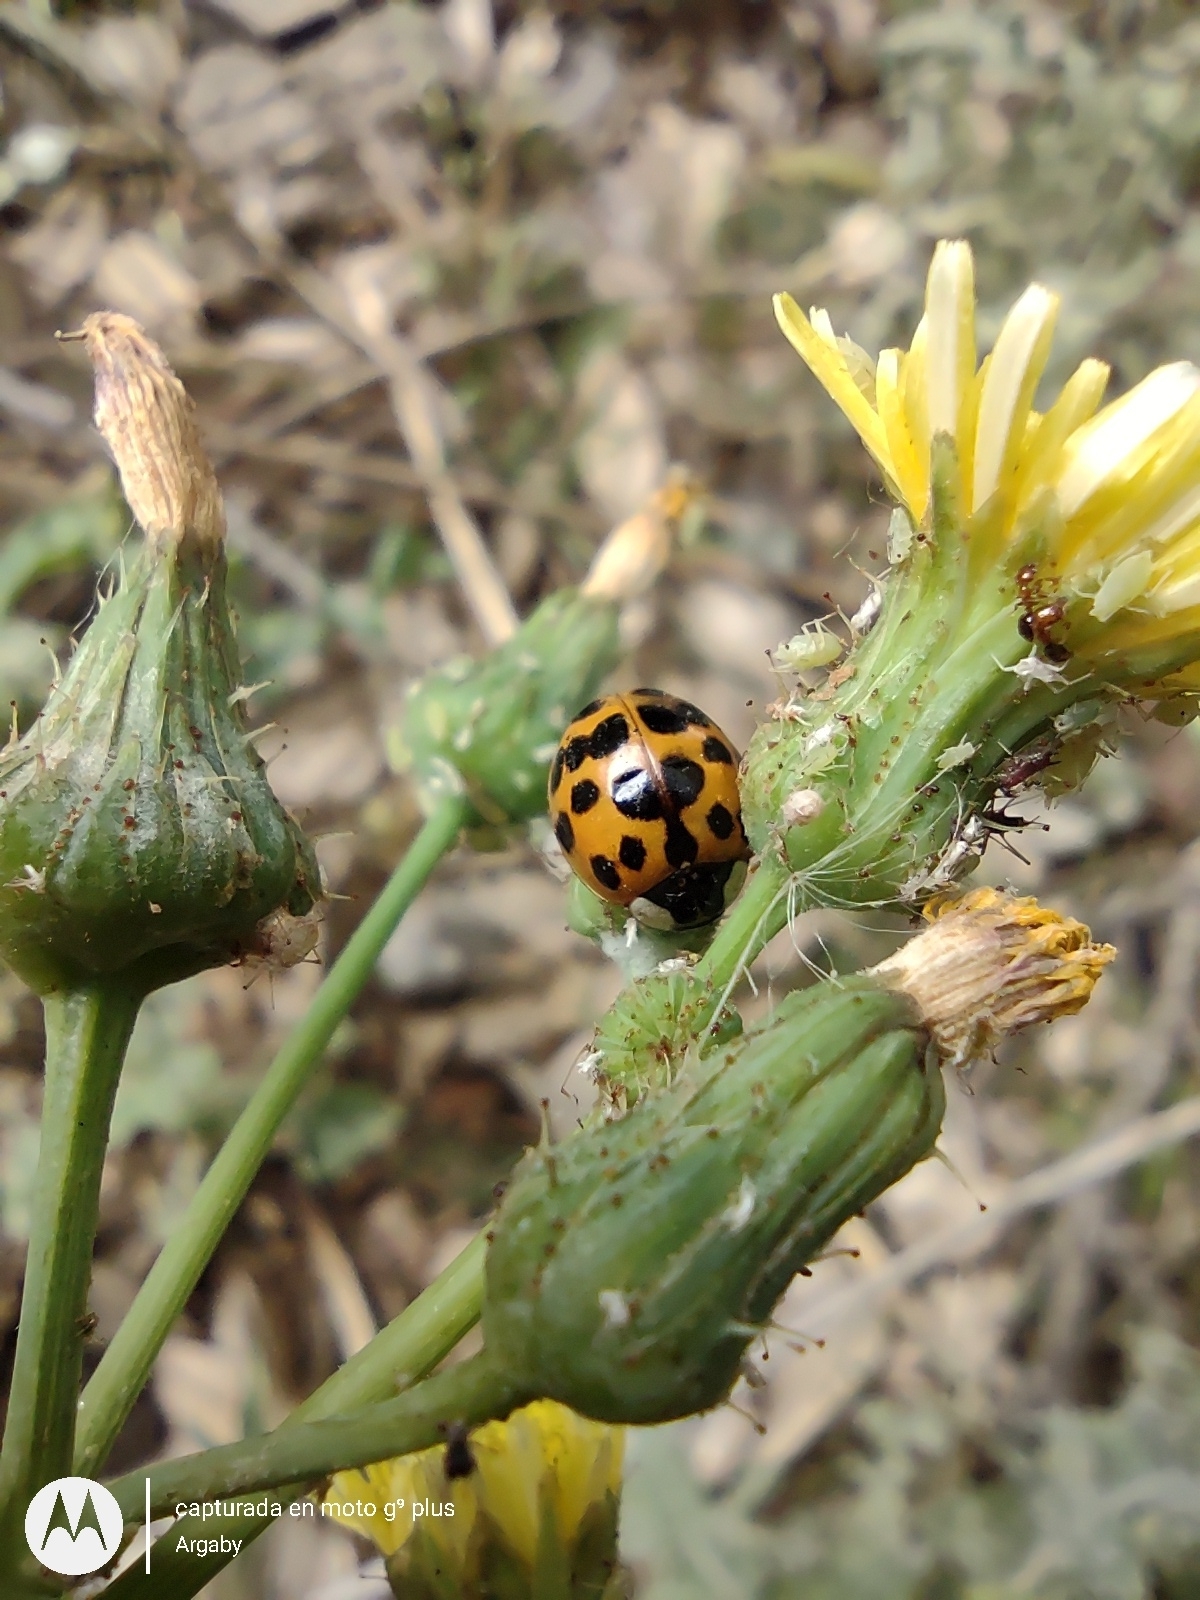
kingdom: Animalia
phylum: Arthropoda
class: Insecta
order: Coleoptera
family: Coccinellidae
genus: Harmonia
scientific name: Harmonia axyridis
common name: Harlequin ladybird
